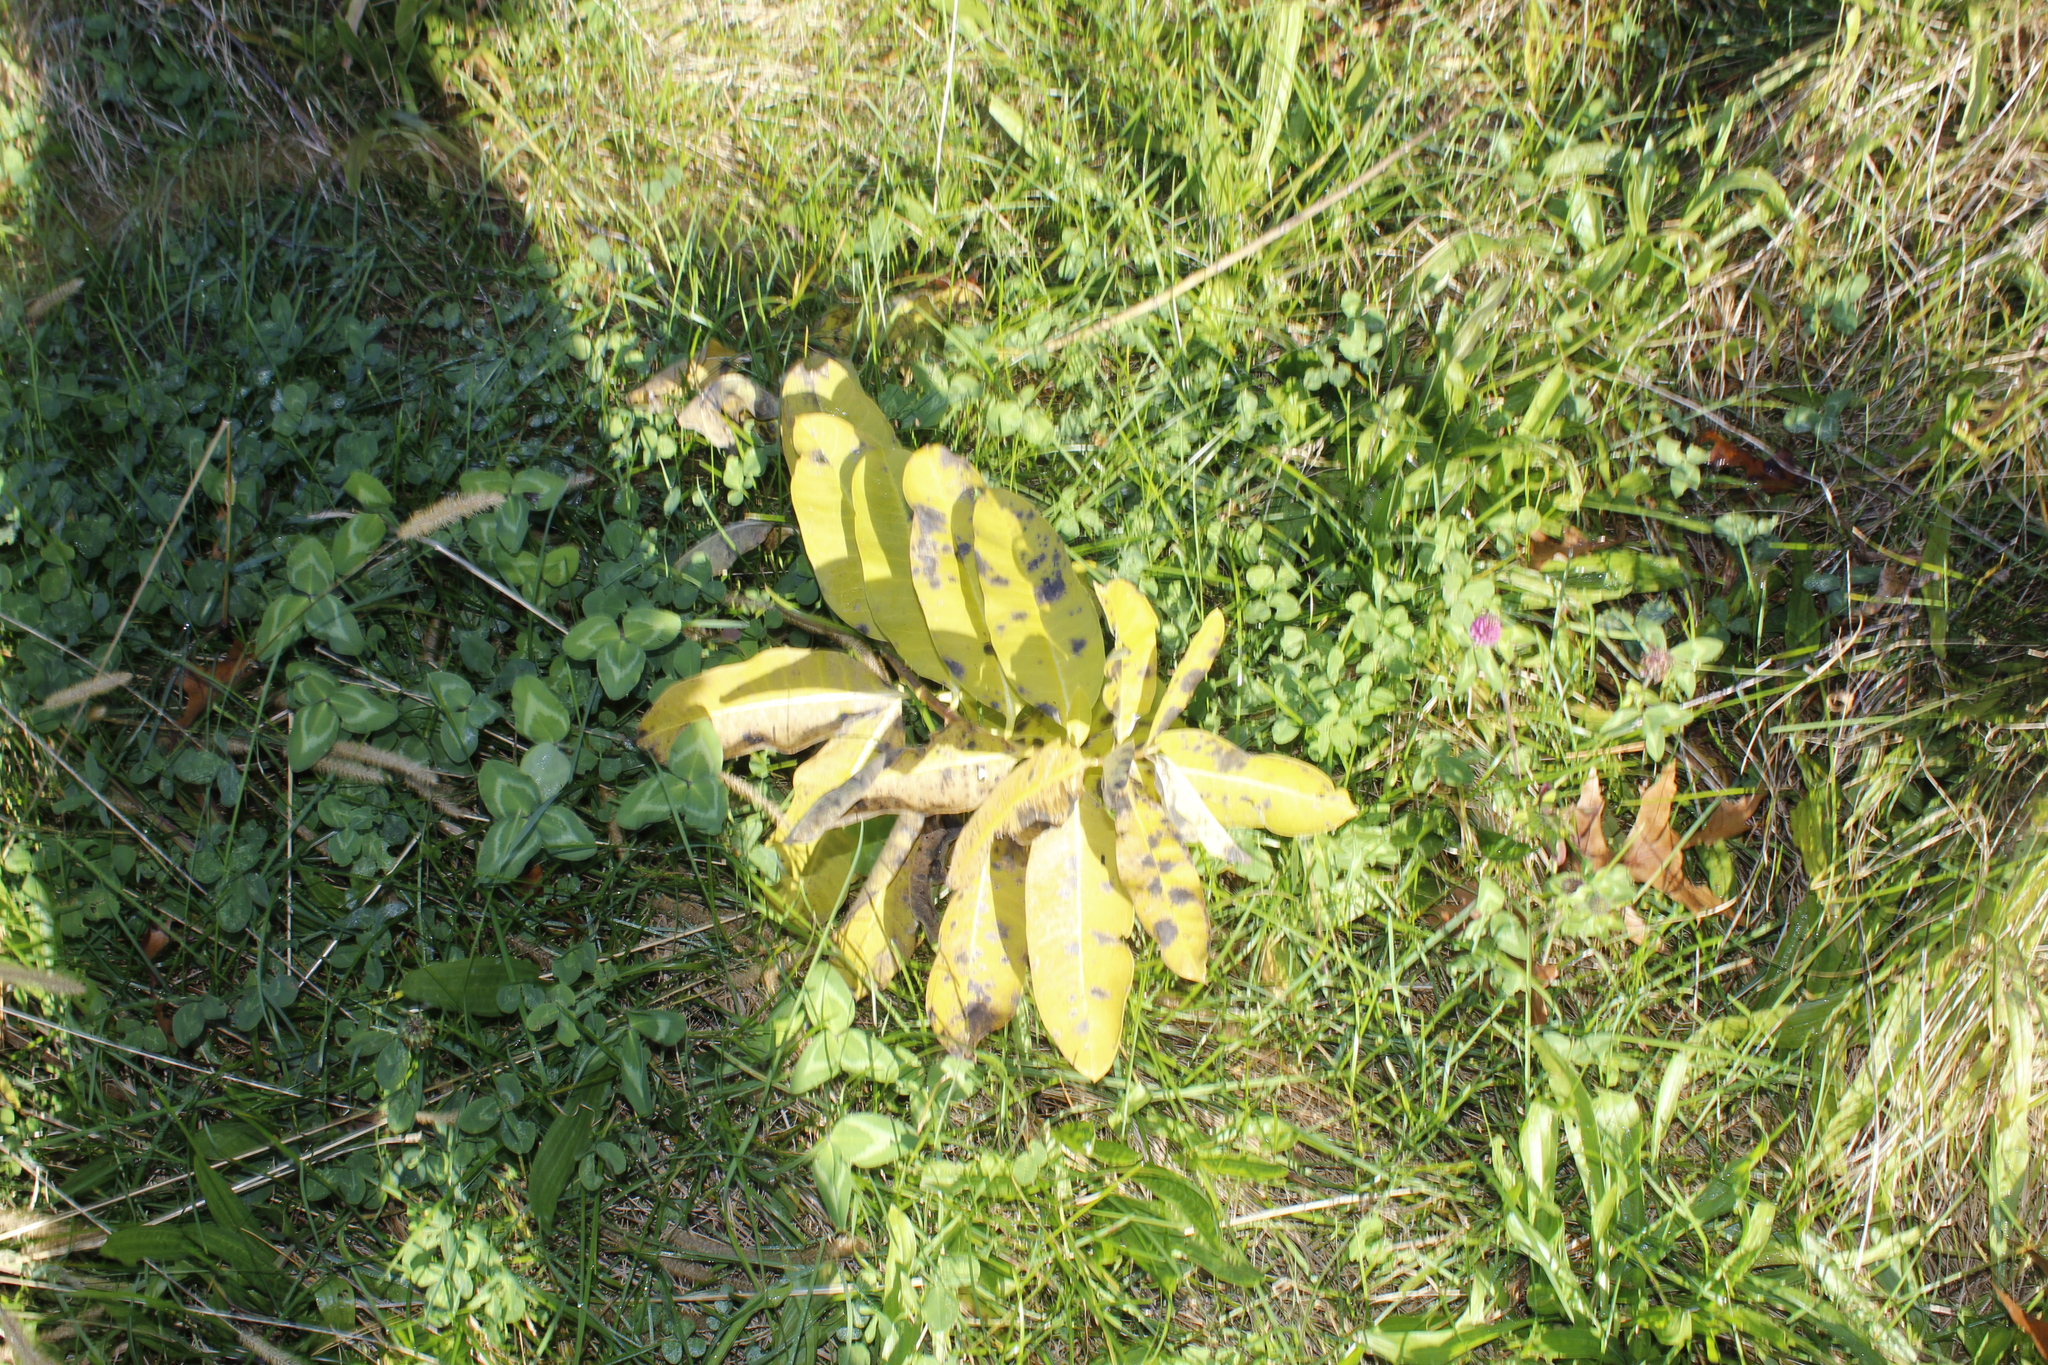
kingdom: Plantae
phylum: Tracheophyta
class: Magnoliopsida
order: Gentianales
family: Apocynaceae
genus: Asclepias
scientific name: Asclepias syriaca
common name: Common milkweed
